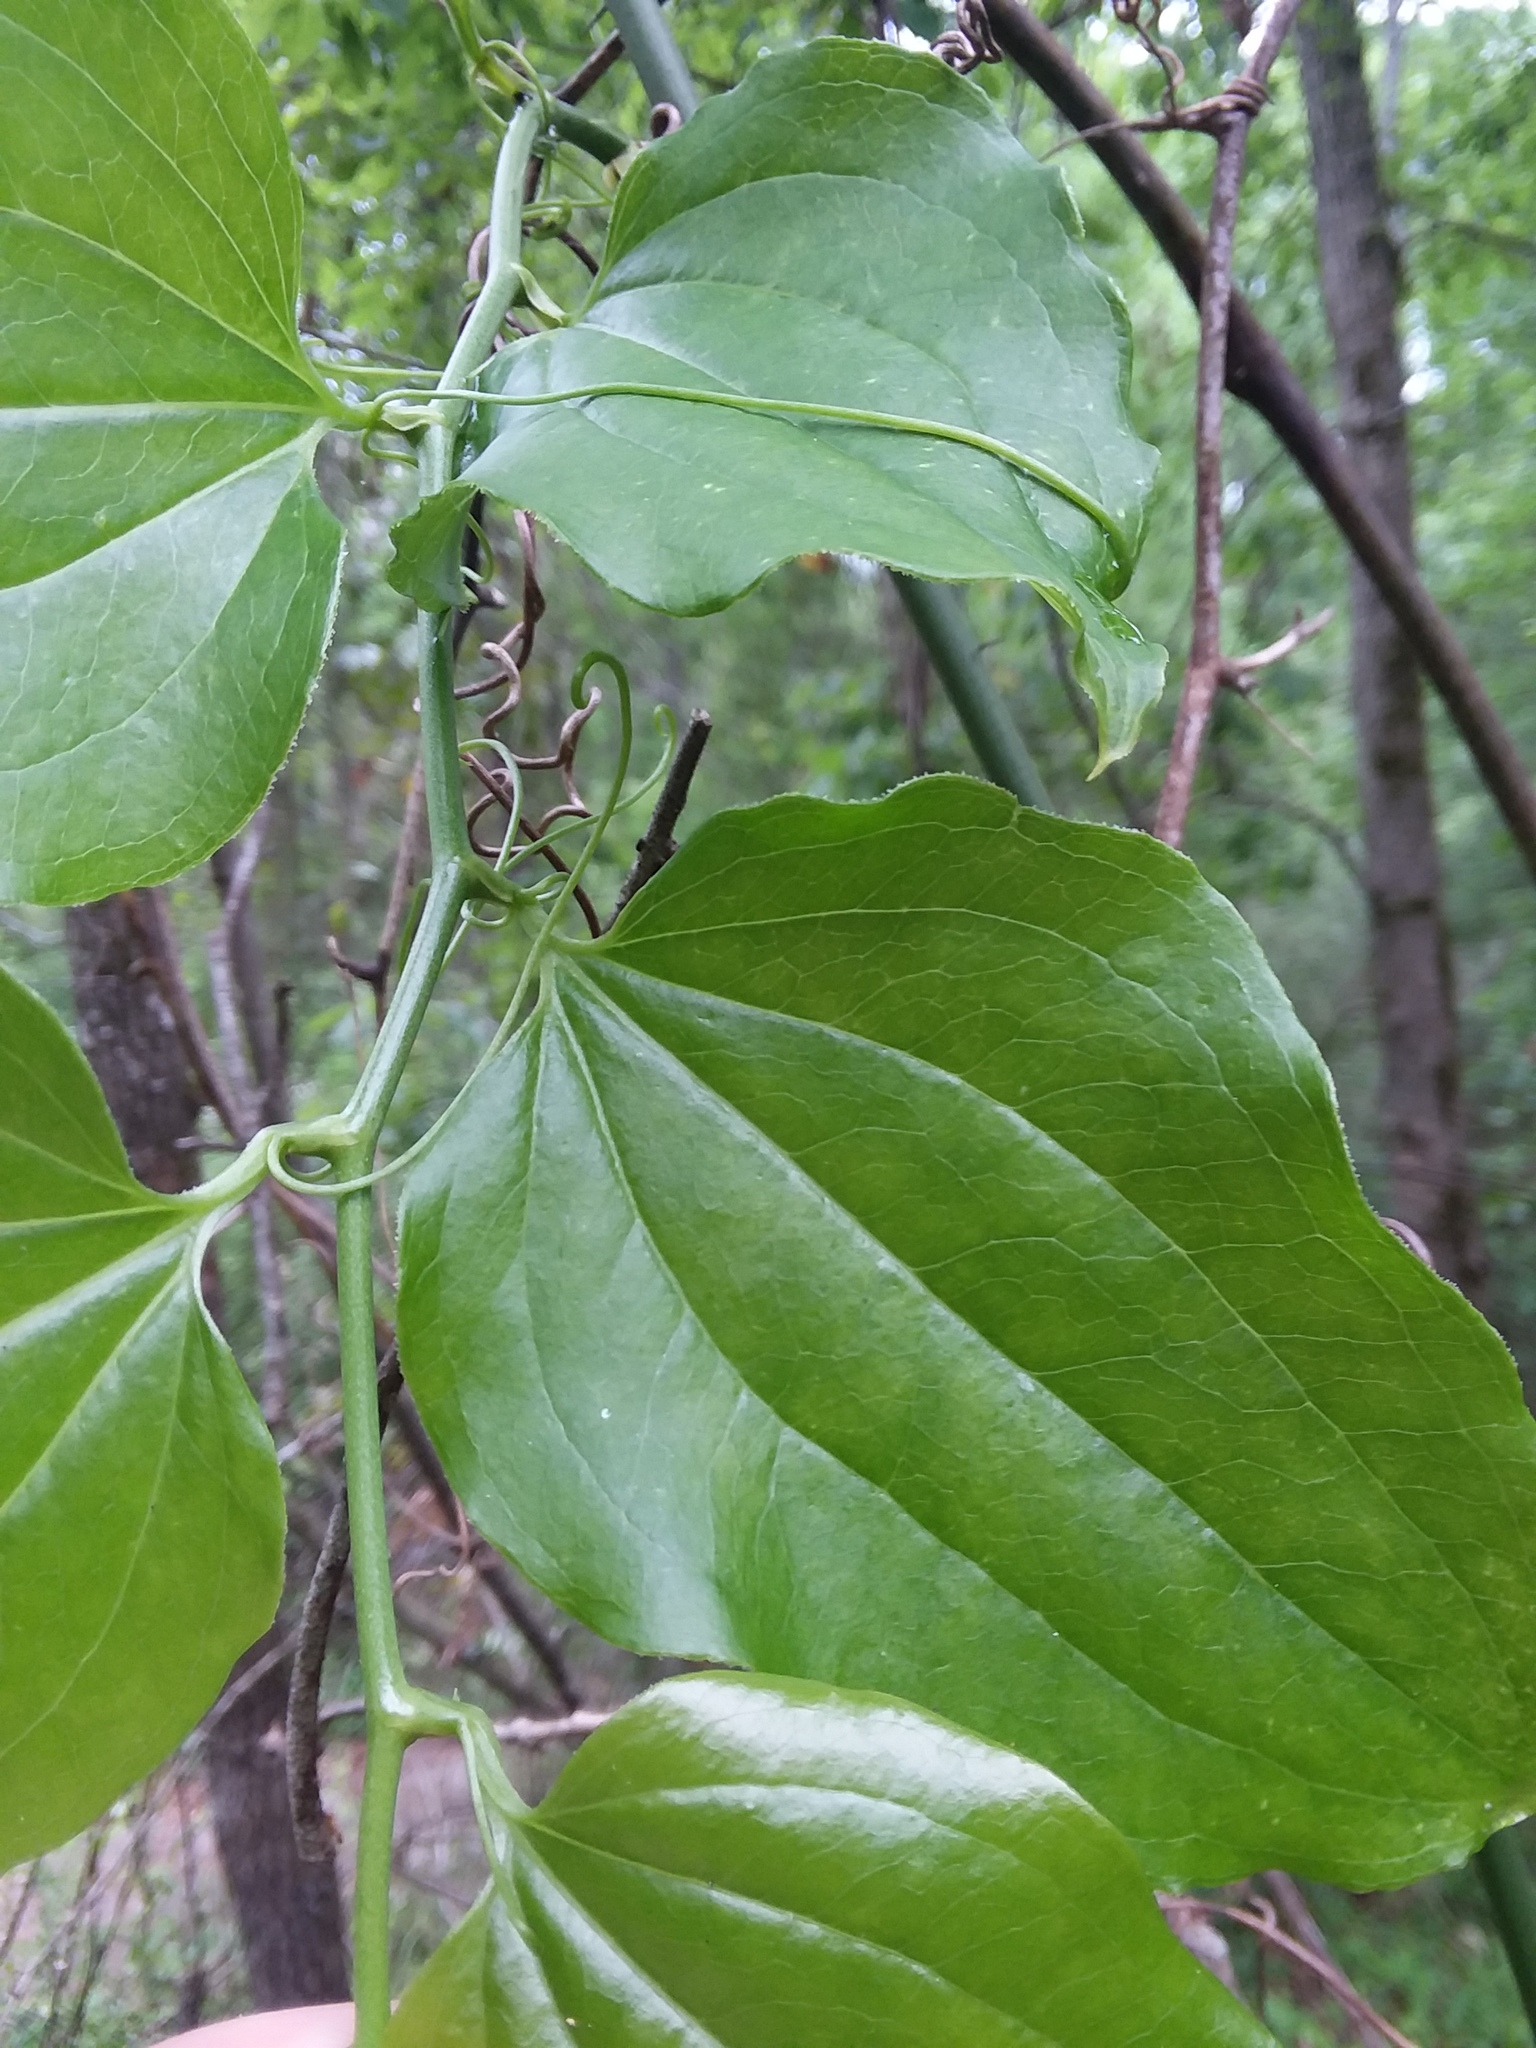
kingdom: Plantae
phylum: Tracheophyta
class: Liliopsida
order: Liliales
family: Smilacaceae
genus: Smilax
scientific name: Smilax tamnoides
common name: Hellfetter
